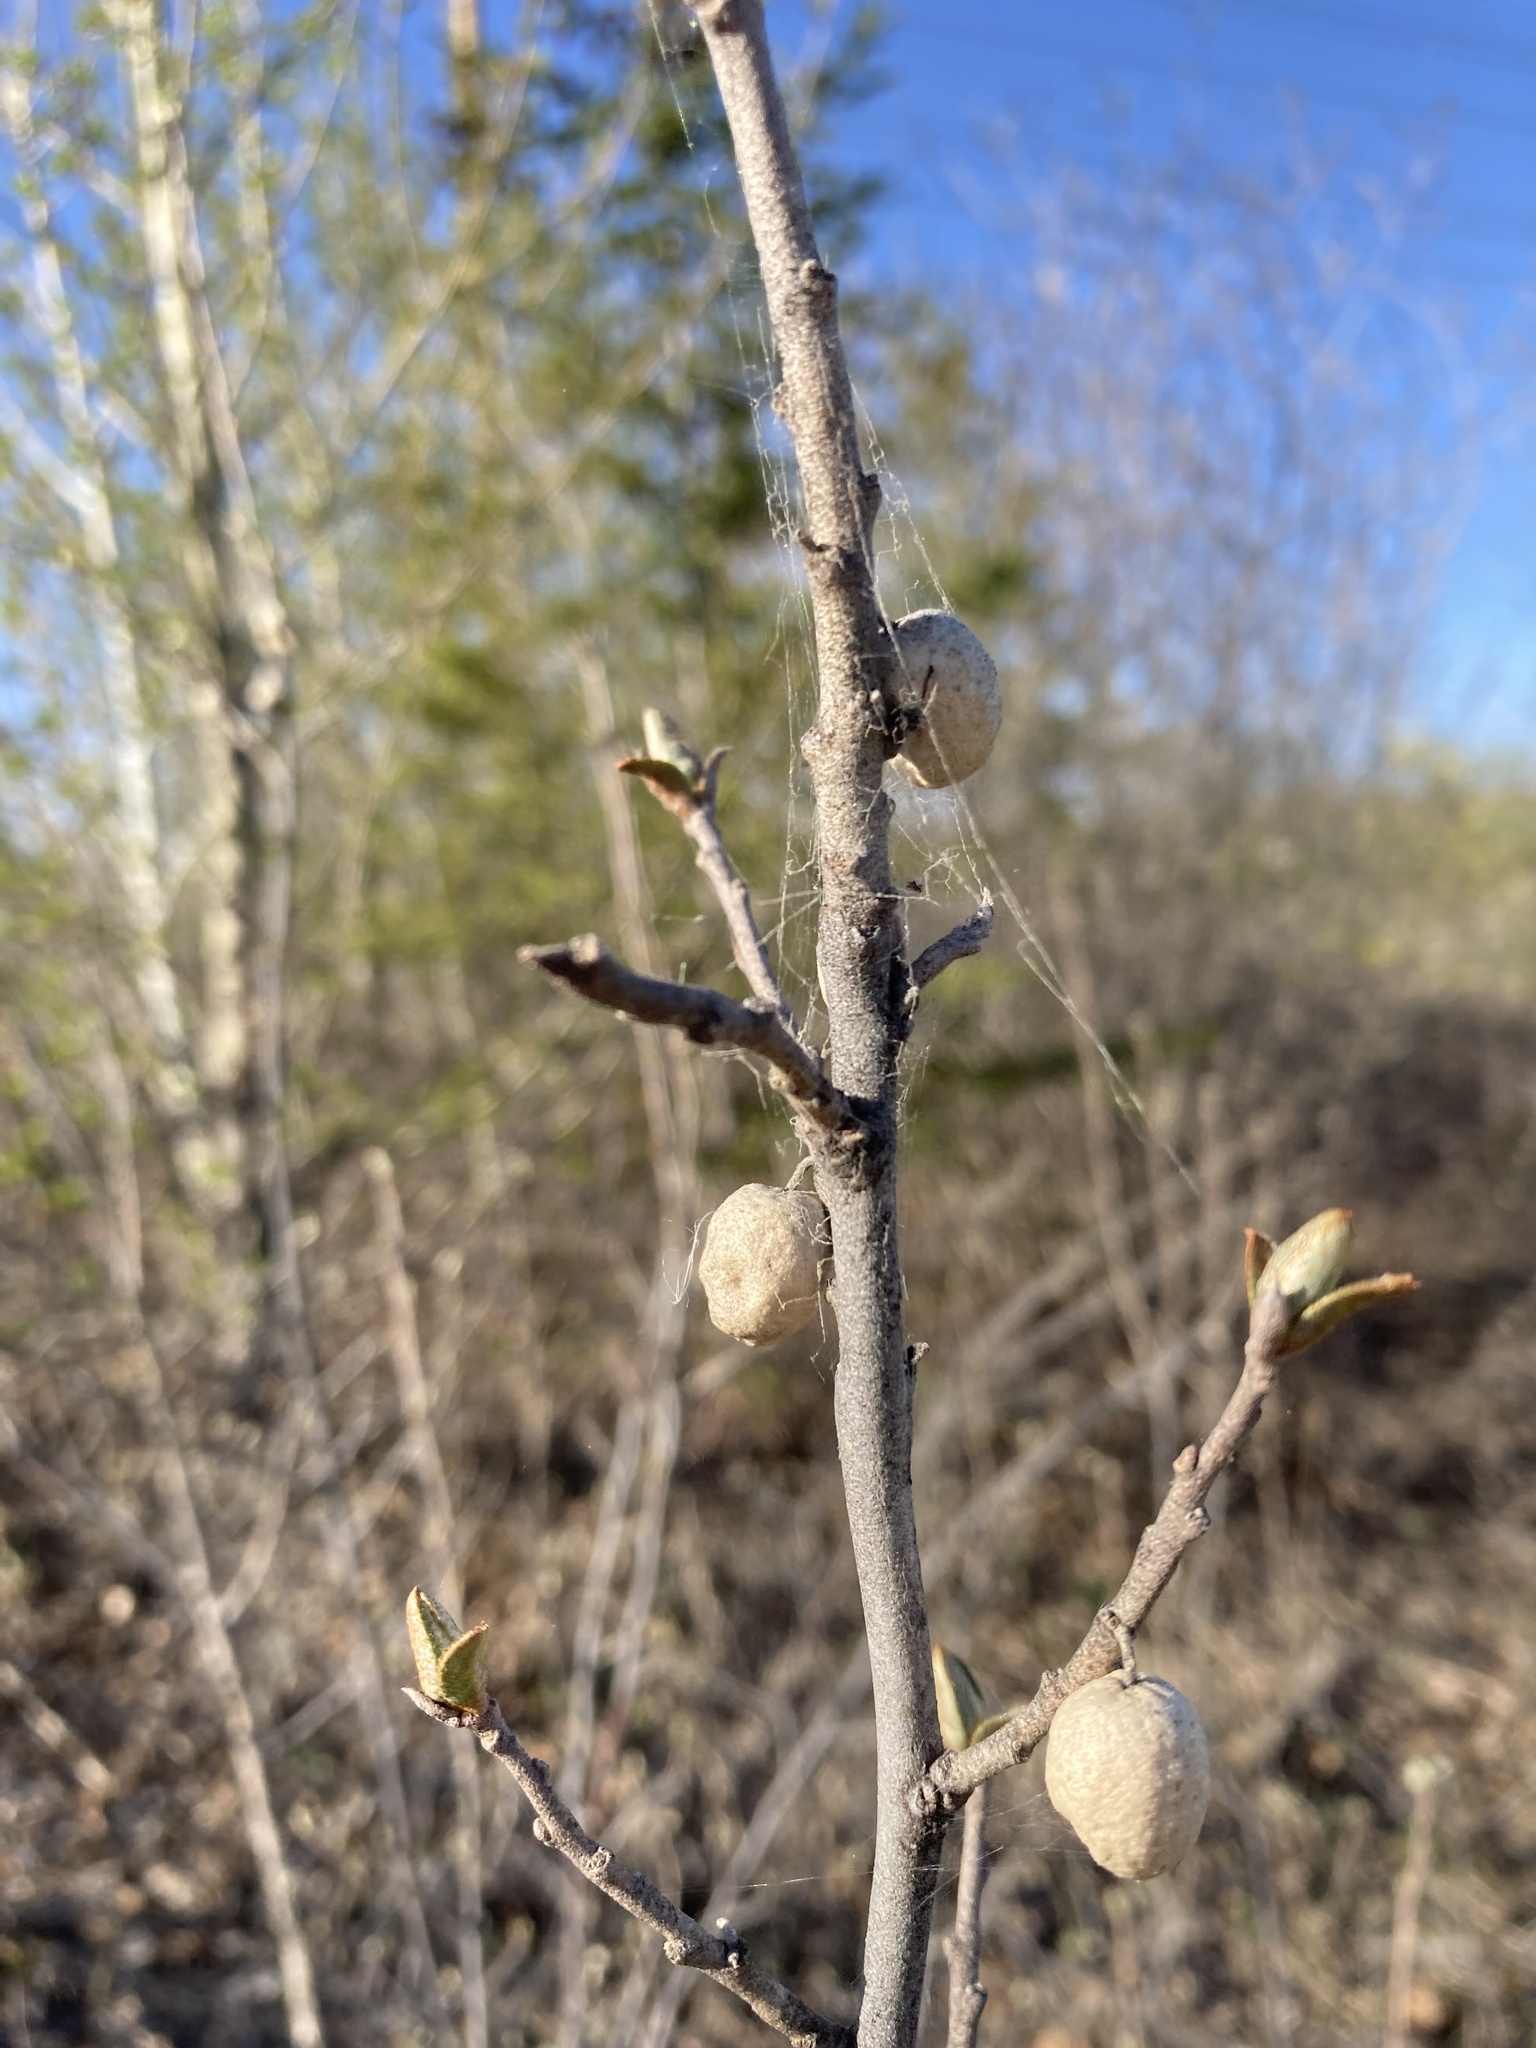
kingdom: Plantae
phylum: Tracheophyta
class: Magnoliopsida
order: Rosales
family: Elaeagnaceae
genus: Elaeagnus
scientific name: Elaeagnus commutata
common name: Silverberry
